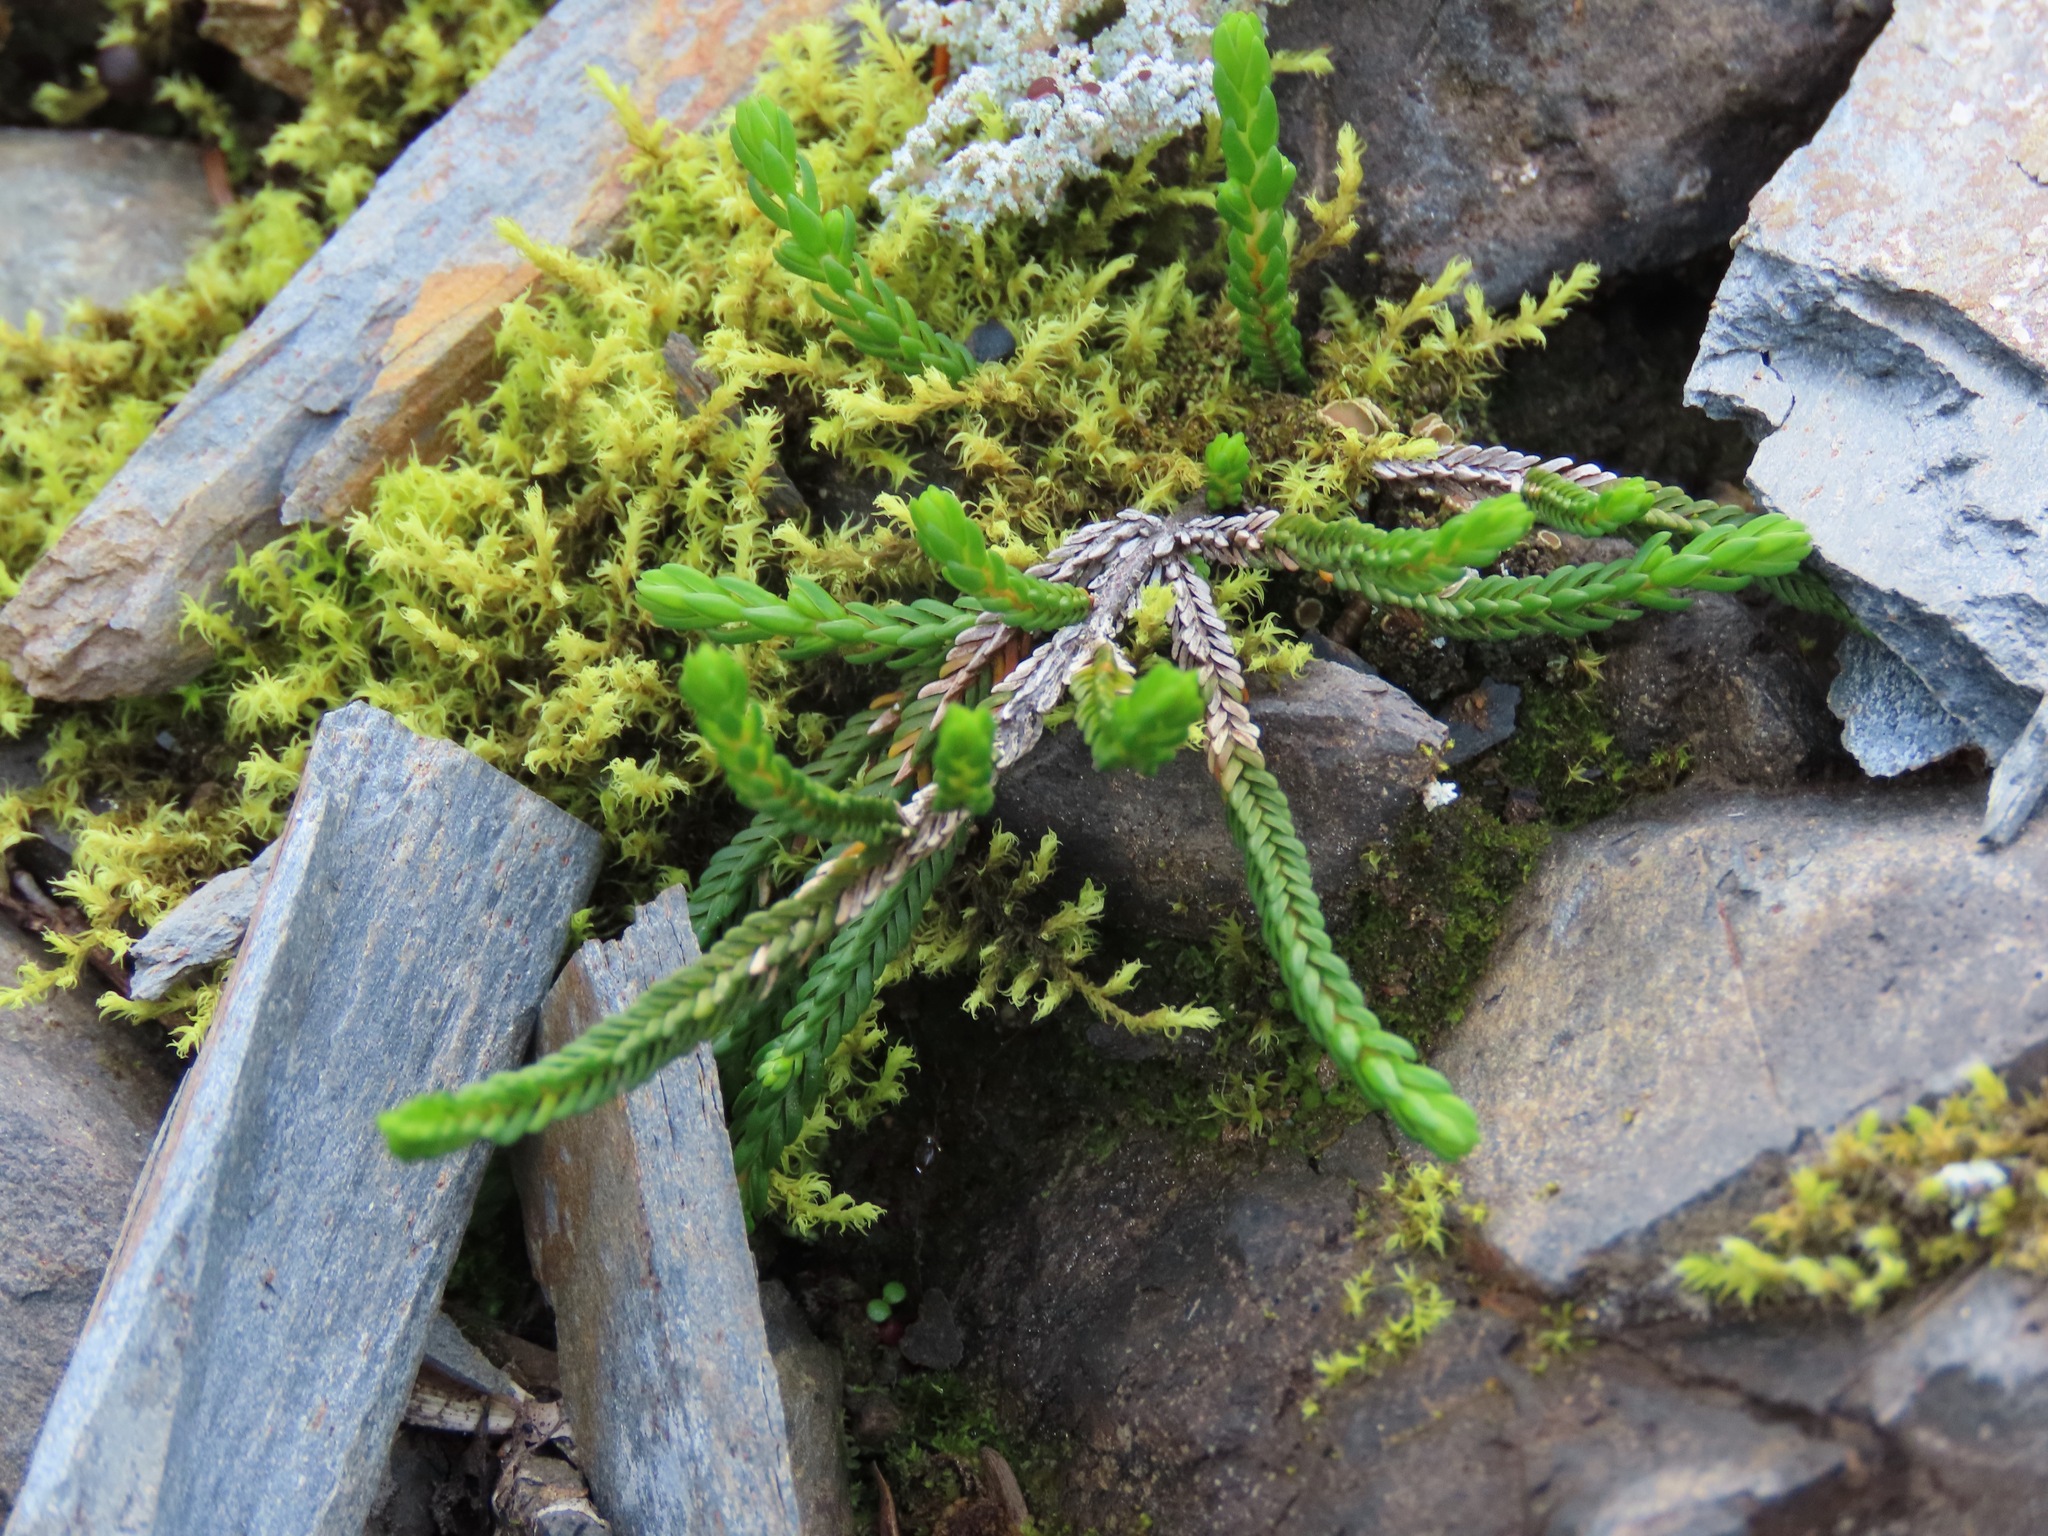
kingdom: Plantae
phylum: Tracheophyta
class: Magnoliopsida
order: Ericales
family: Ericaceae
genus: Cassiope
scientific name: Cassiope mertensiana
